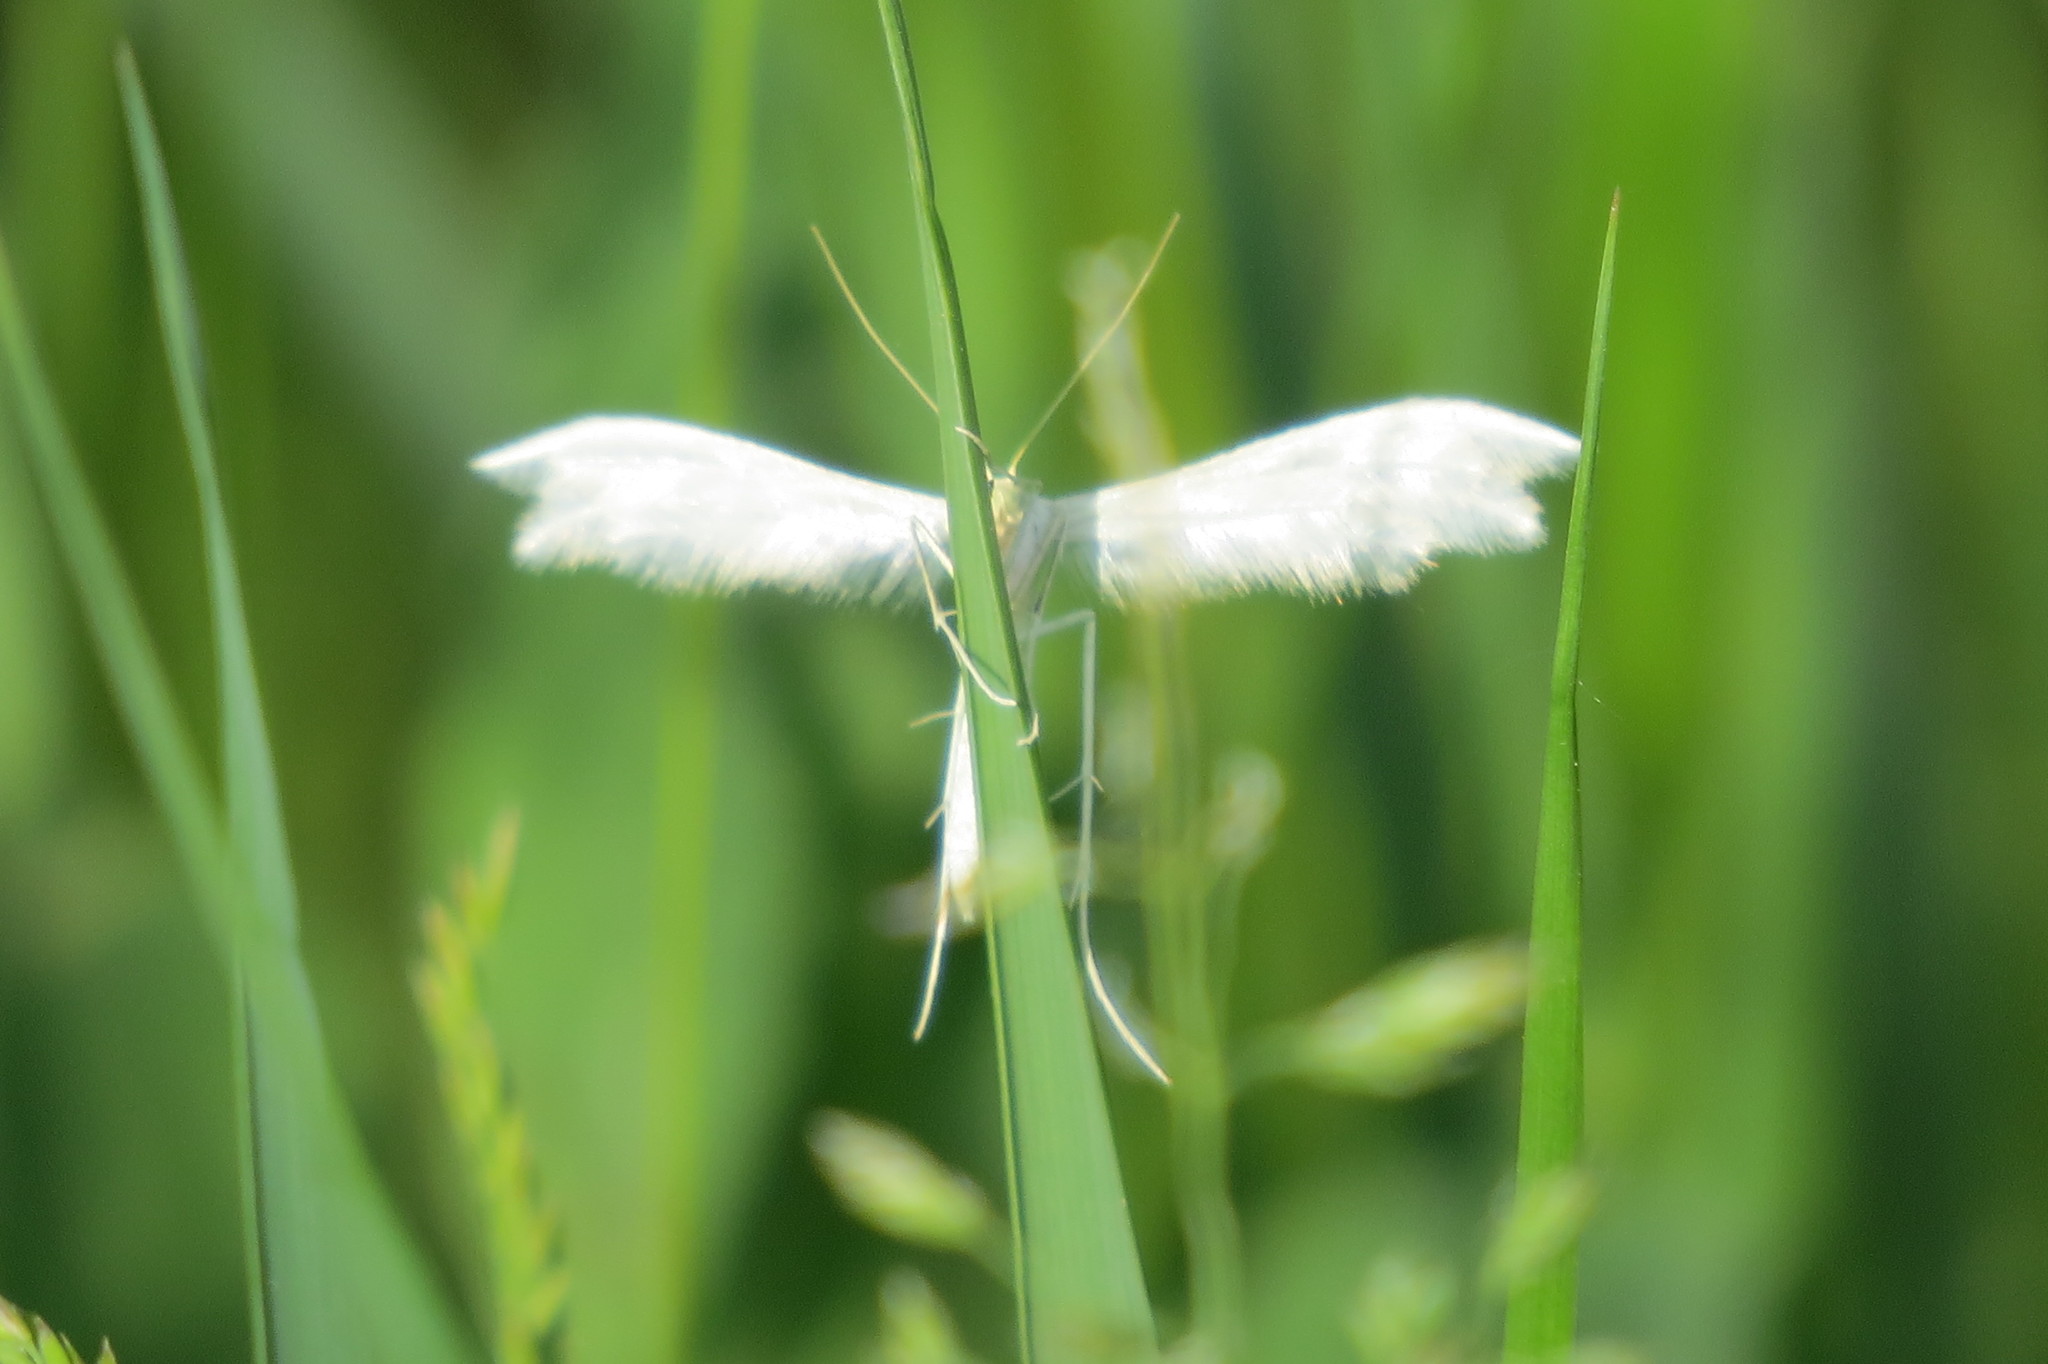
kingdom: Animalia
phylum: Arthropoda
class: Insecta
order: Lepidoptera
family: Pterophoridae
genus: Pterophorus
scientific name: Pterophorus pentadactyla
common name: White plume moth
